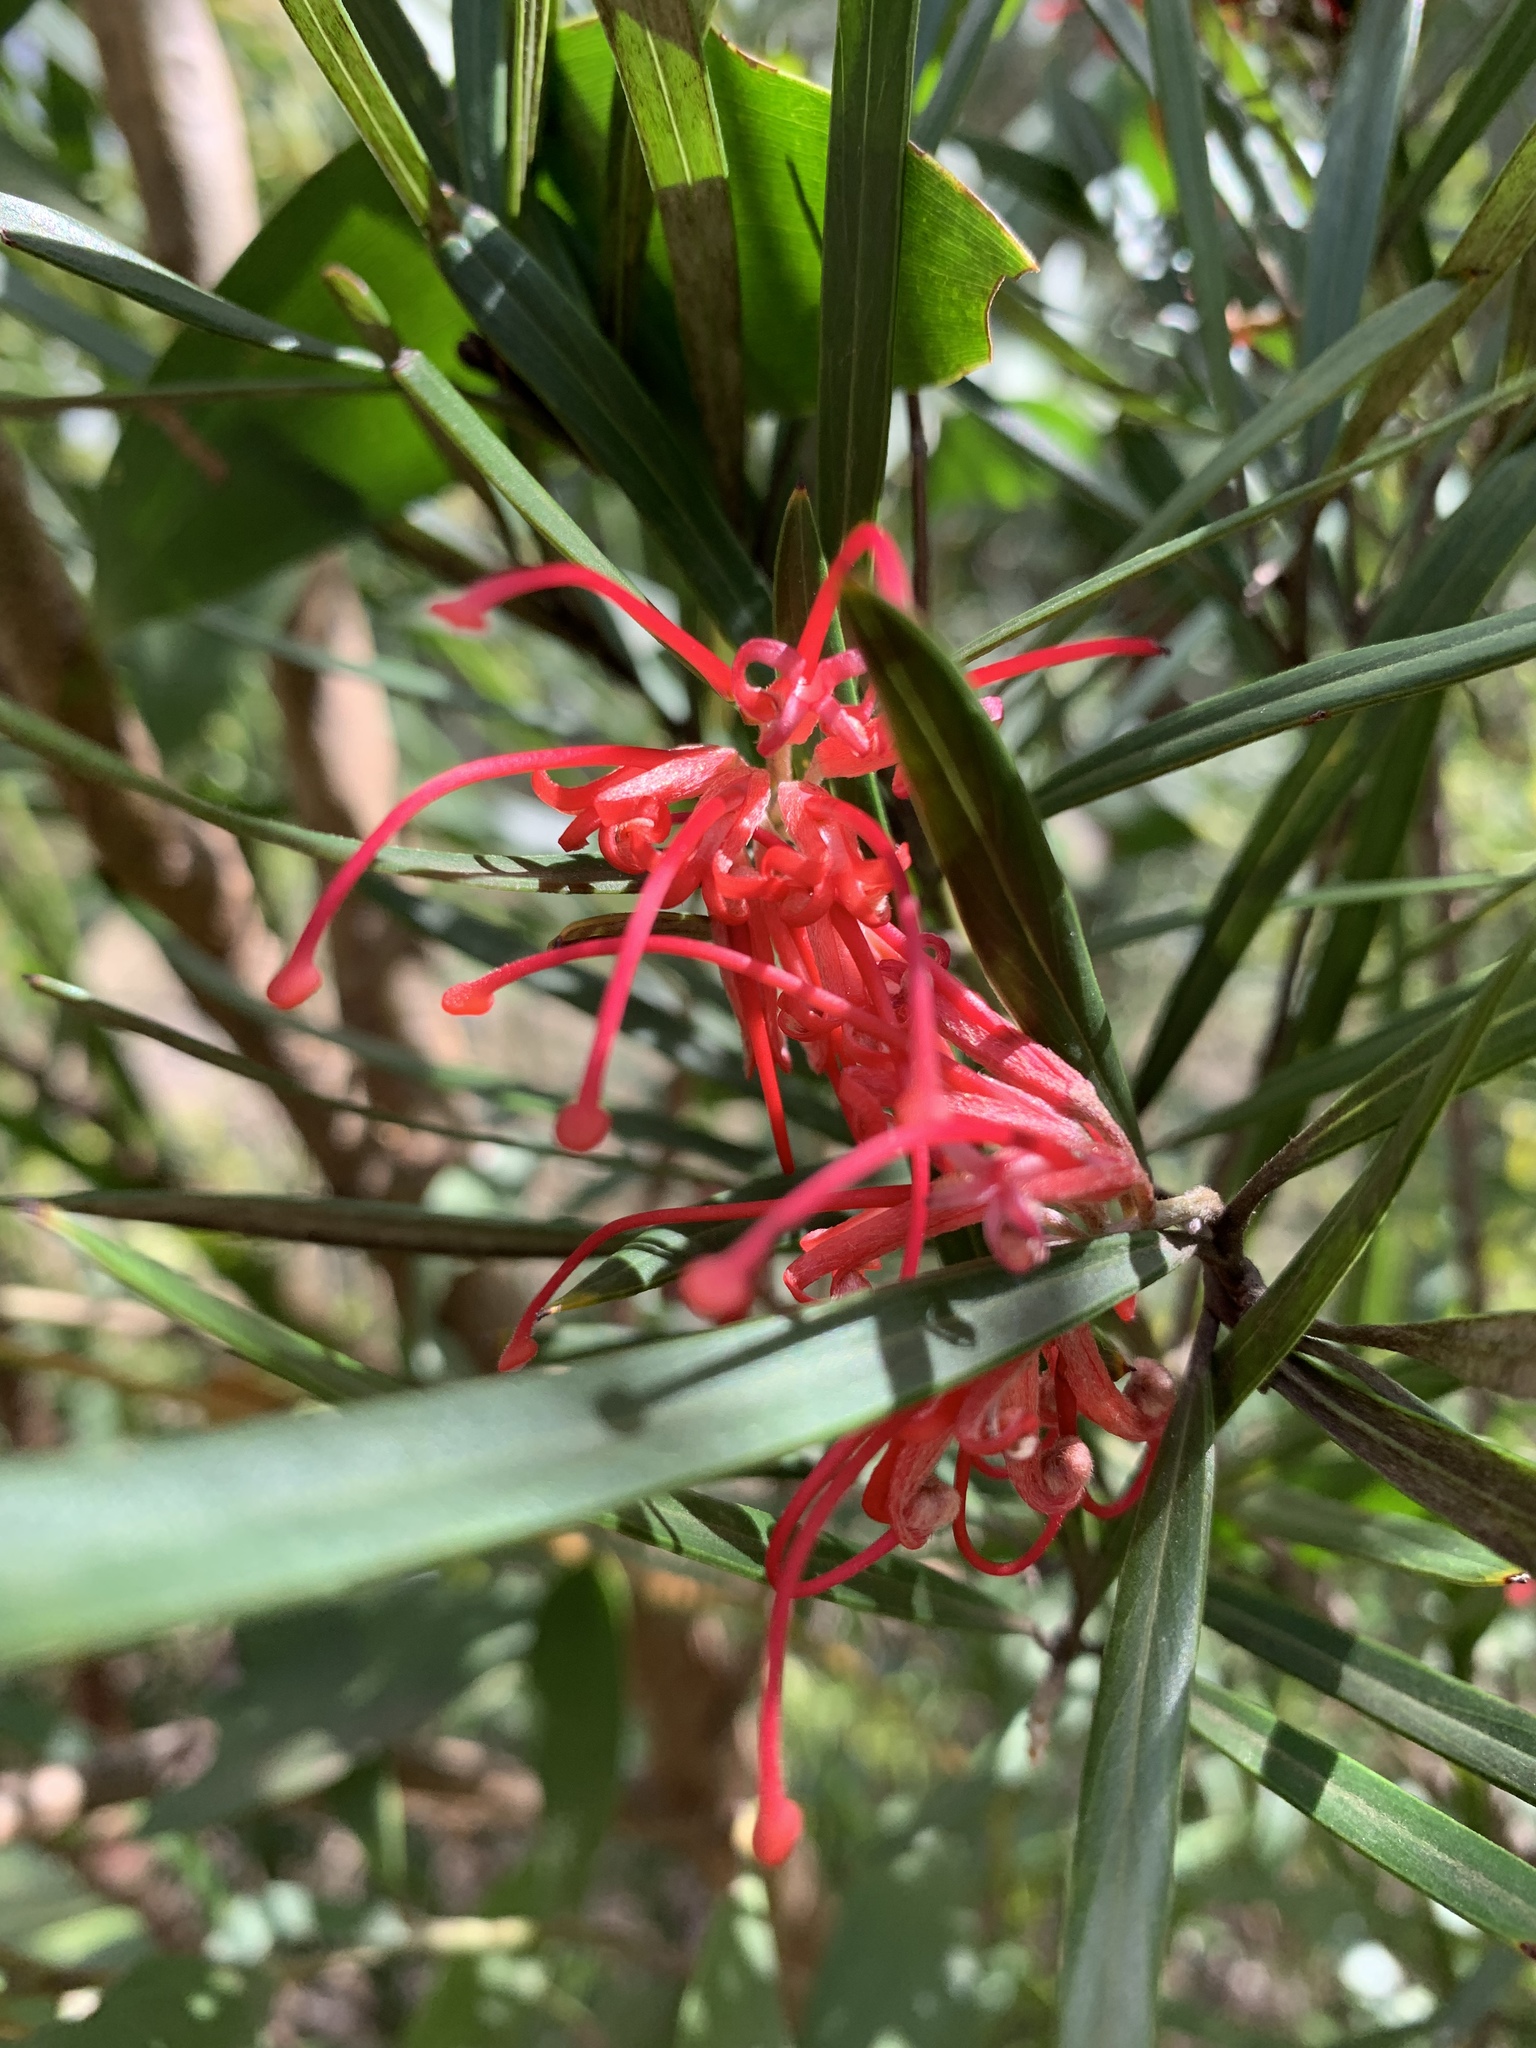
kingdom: Plantae
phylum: Tracheophyta
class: Magnoliopsida
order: Proteales
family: Proteaceae
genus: Grevillea
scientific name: Grevillea oleoides
